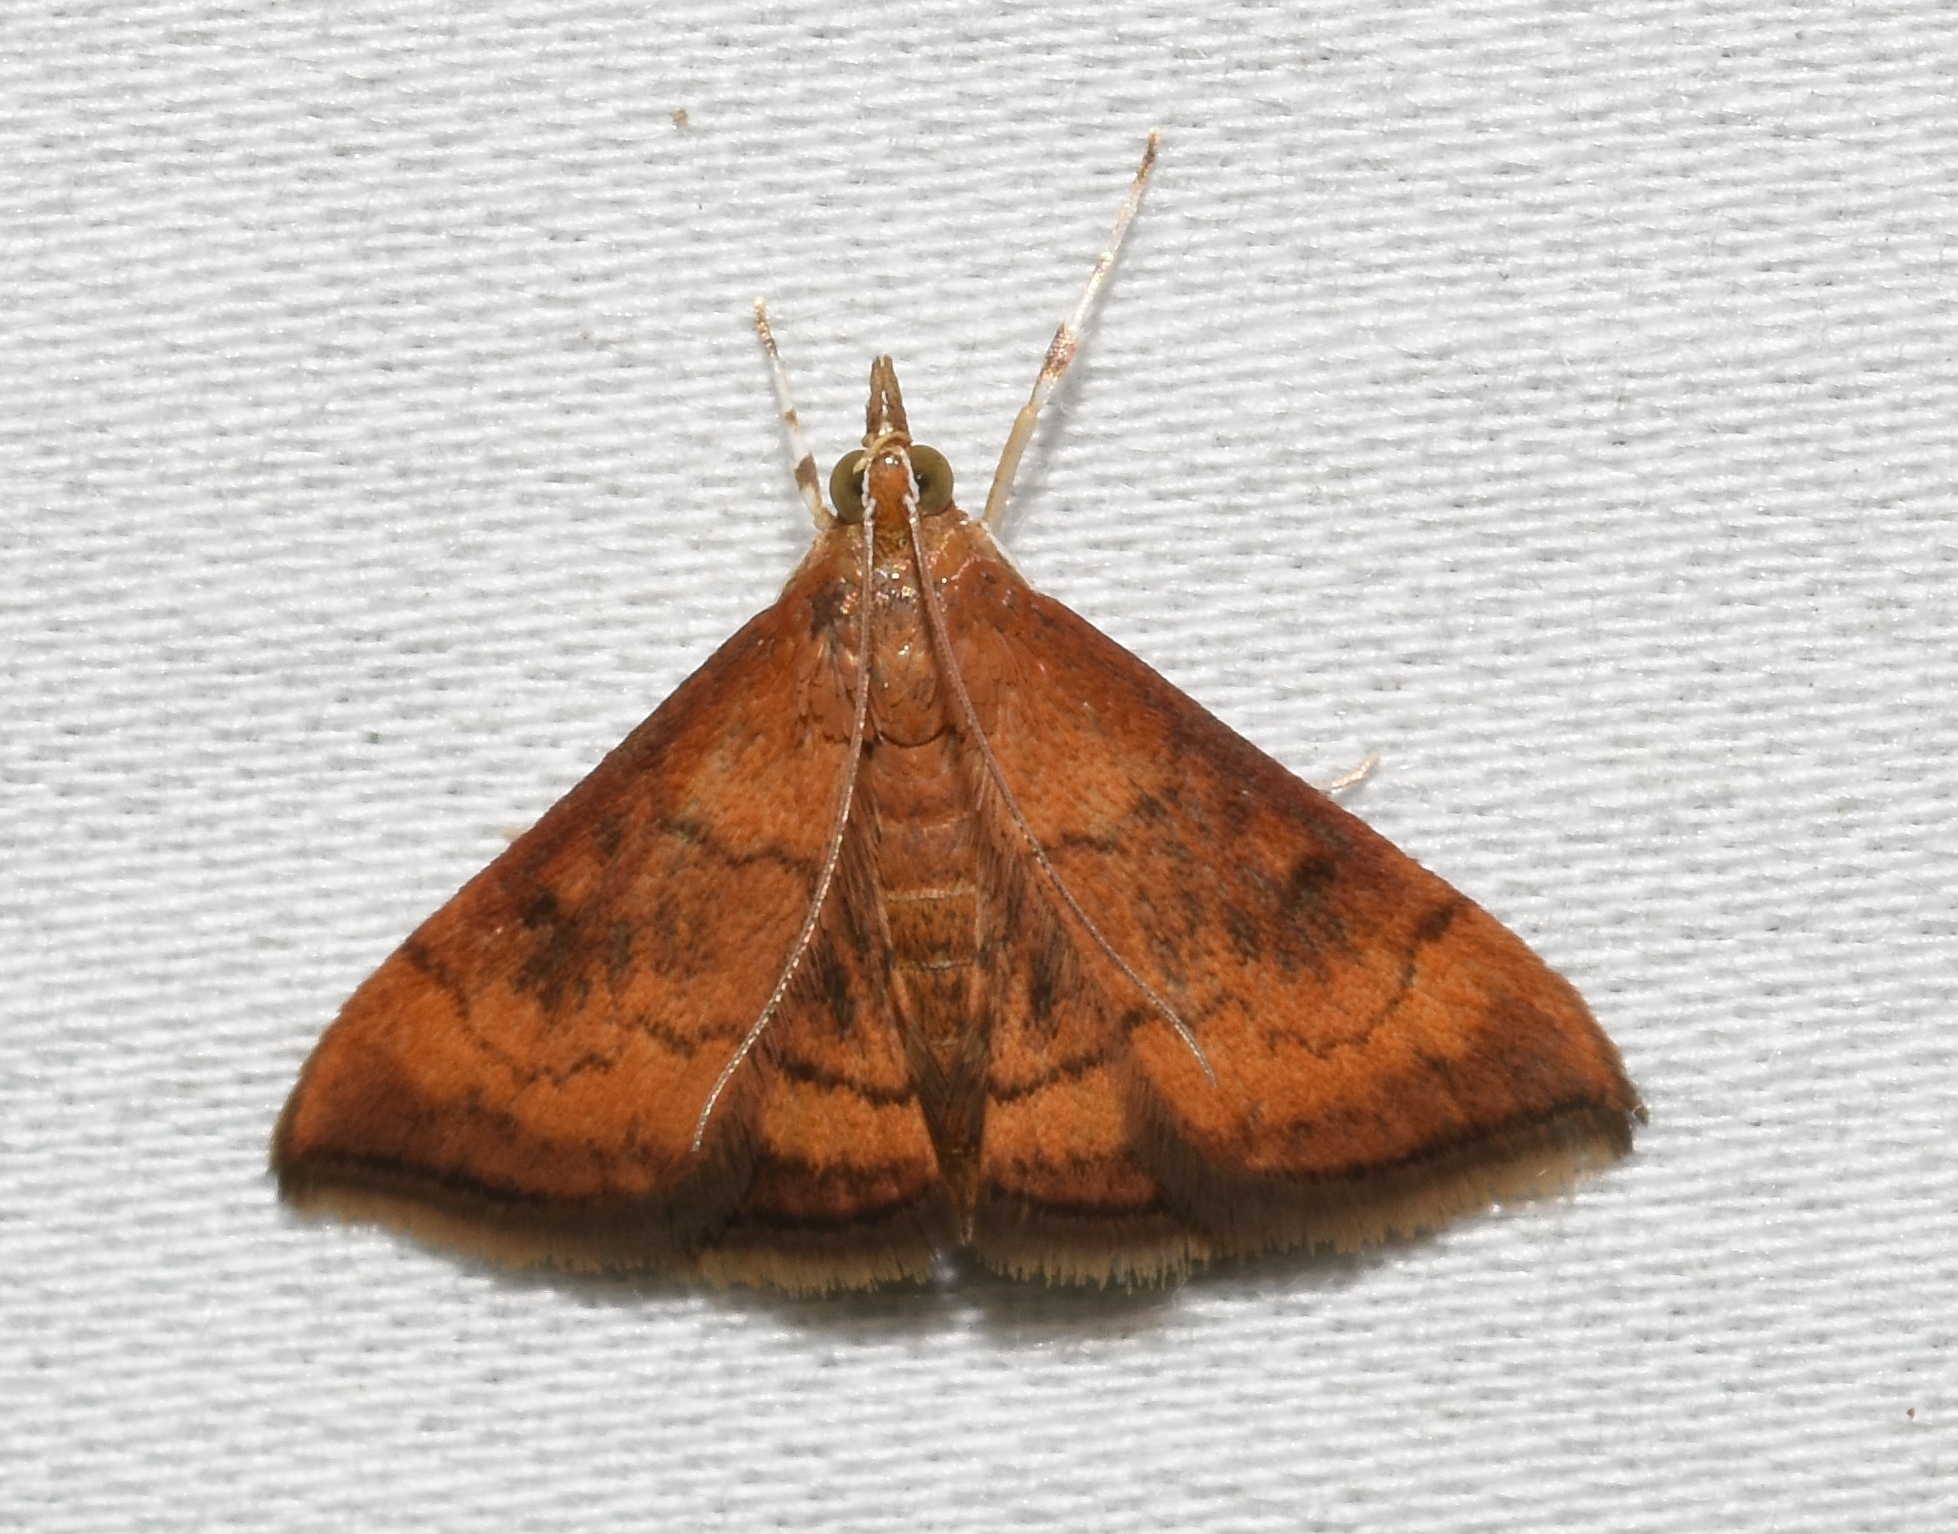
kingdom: Animalia
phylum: Arthropoda
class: Insecta
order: Lepidoptera
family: Crambidae
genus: Pyrausta
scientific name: Pyrausta rubricalis
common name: Variable reddish pyrausta
